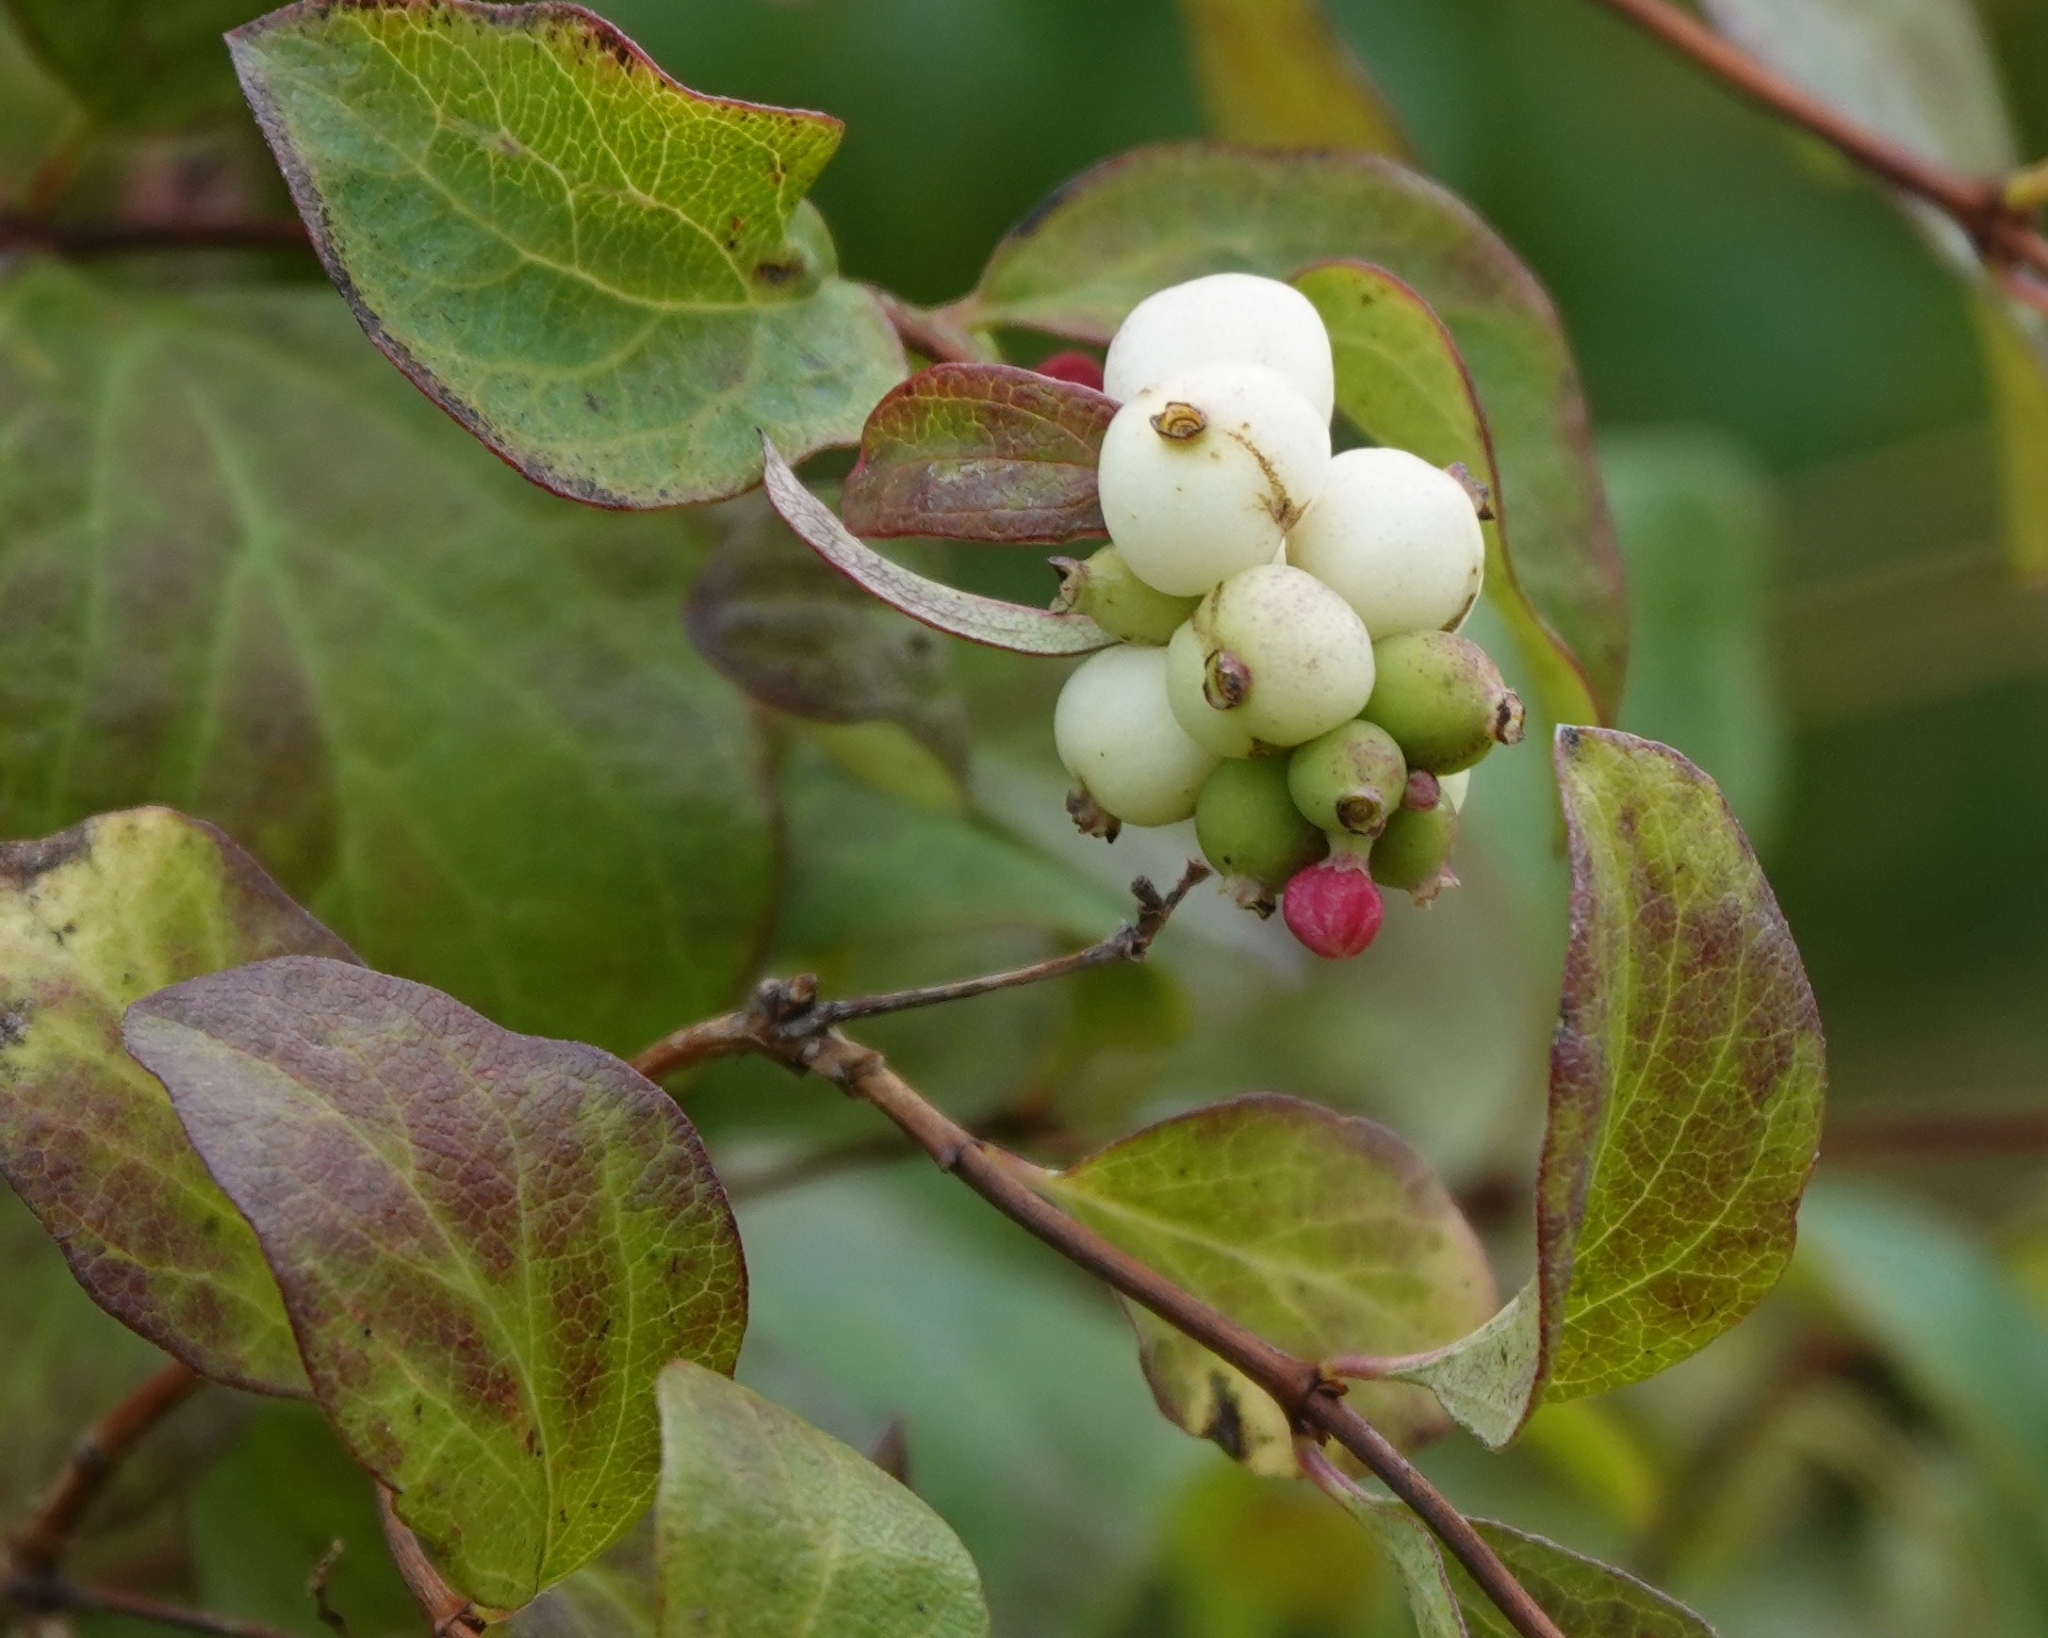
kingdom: Plantae
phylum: Tracheophyta
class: Magnoliopsida
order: Dipsacales
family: Caprifoliaceae
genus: Symphoricarpos
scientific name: Symphoricarpos albus
